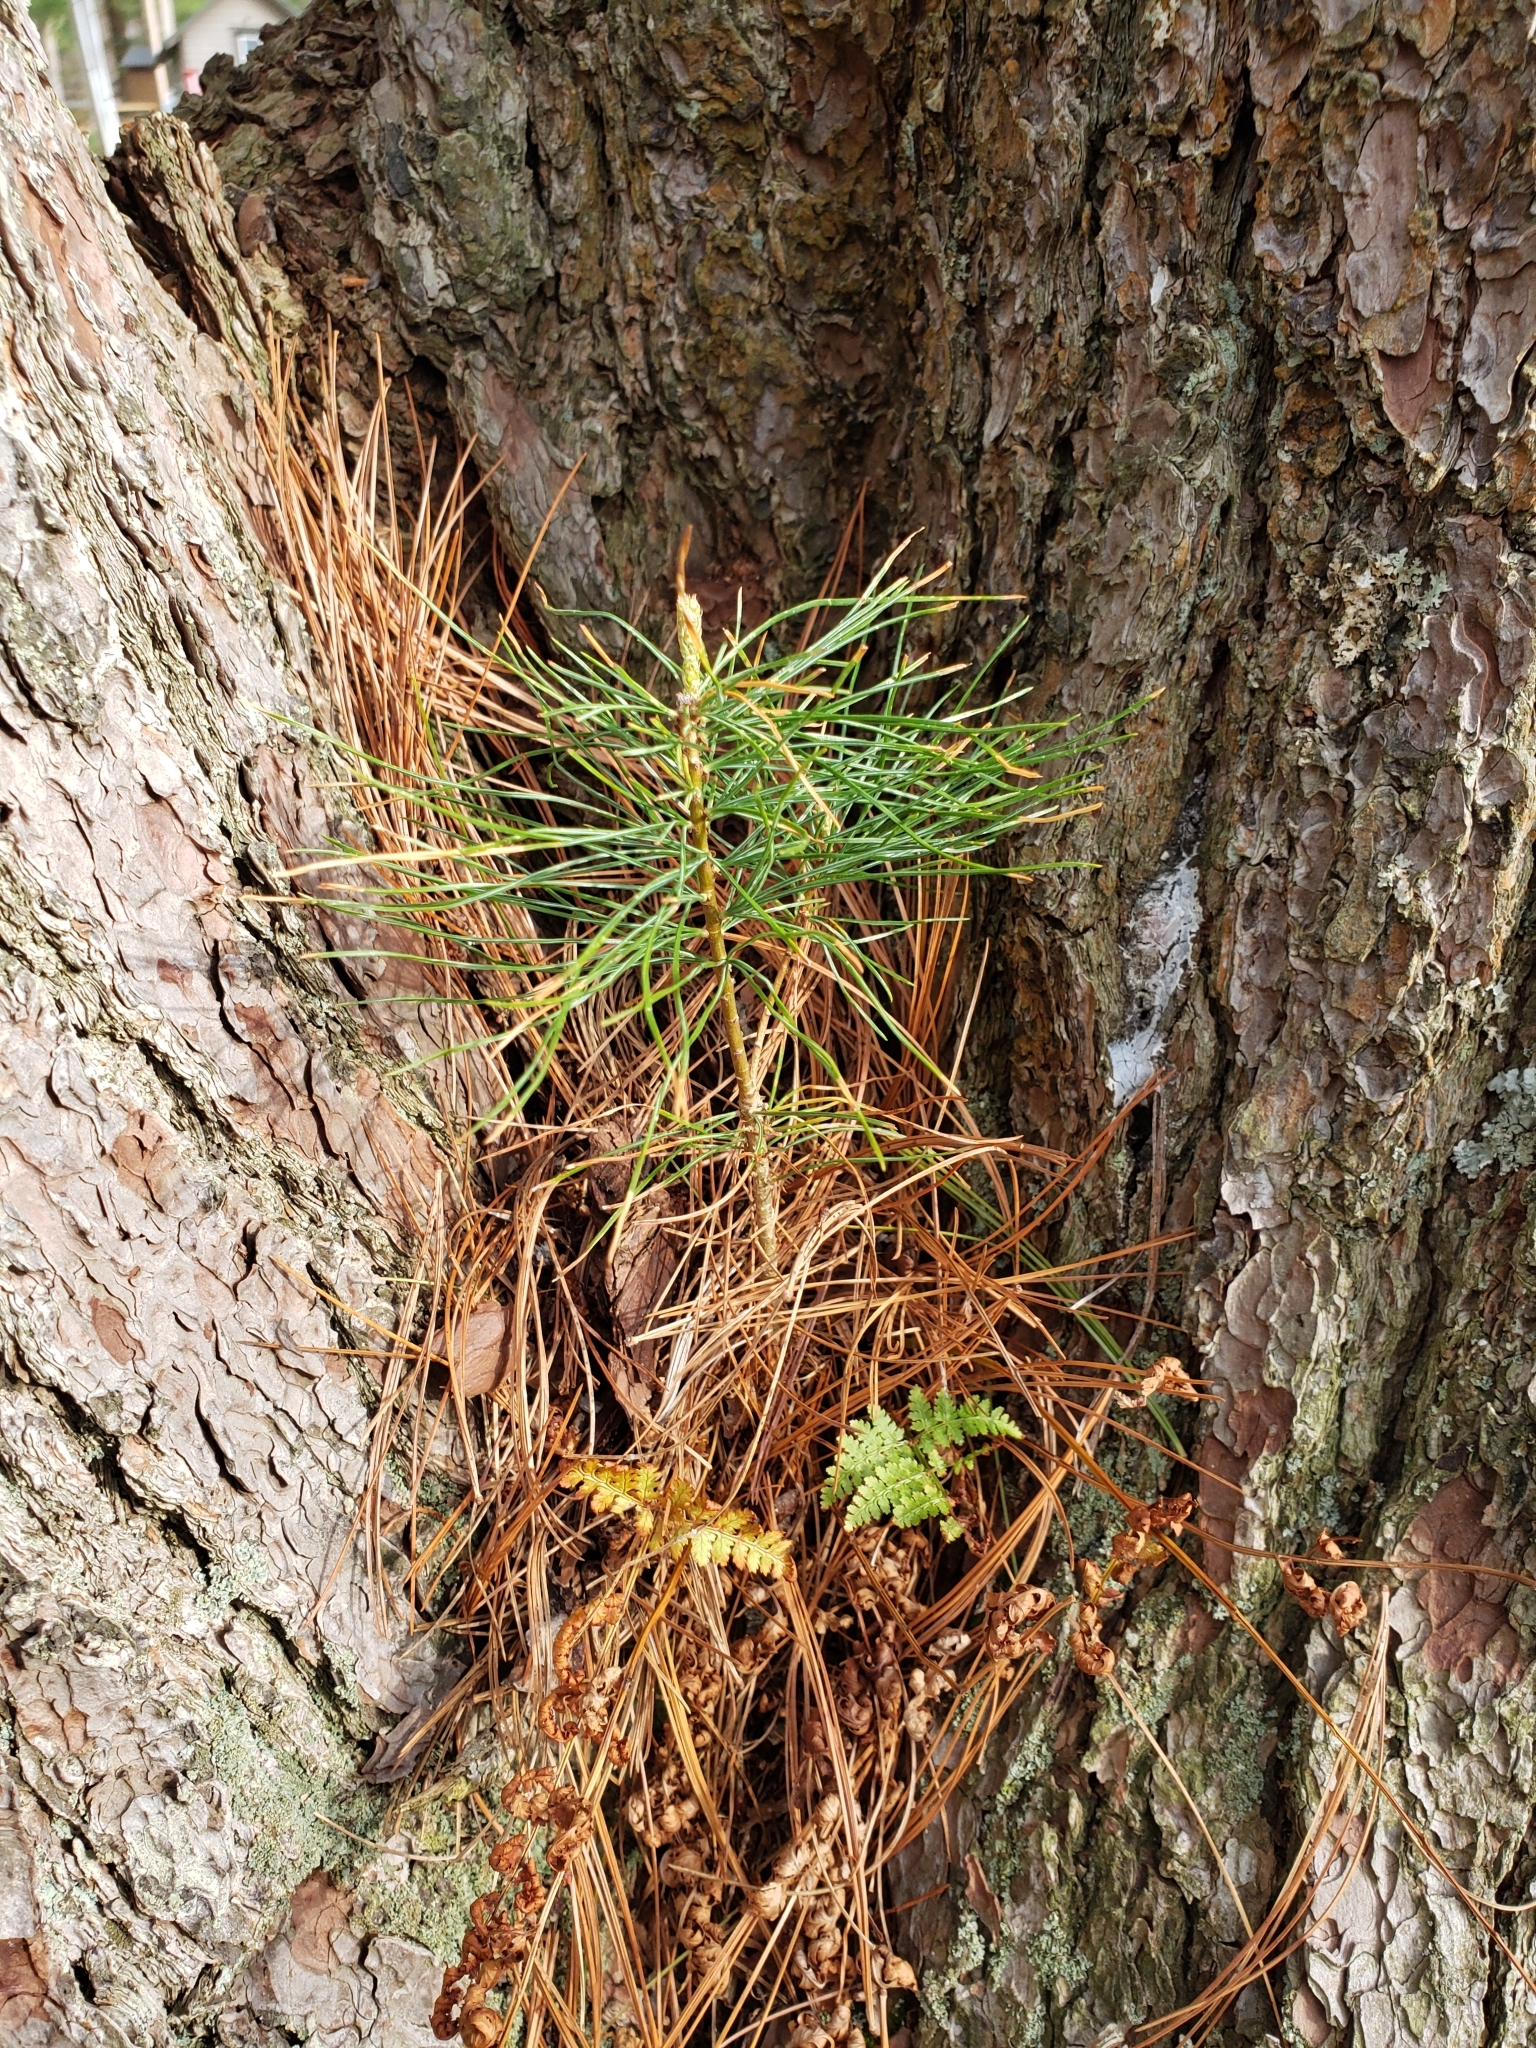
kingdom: Plantae
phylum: Tracheophyta
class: Pinopsida
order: Pinales
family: Pinaceae
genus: Pinus
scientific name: Pinus strobus
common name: Weymouth pine
